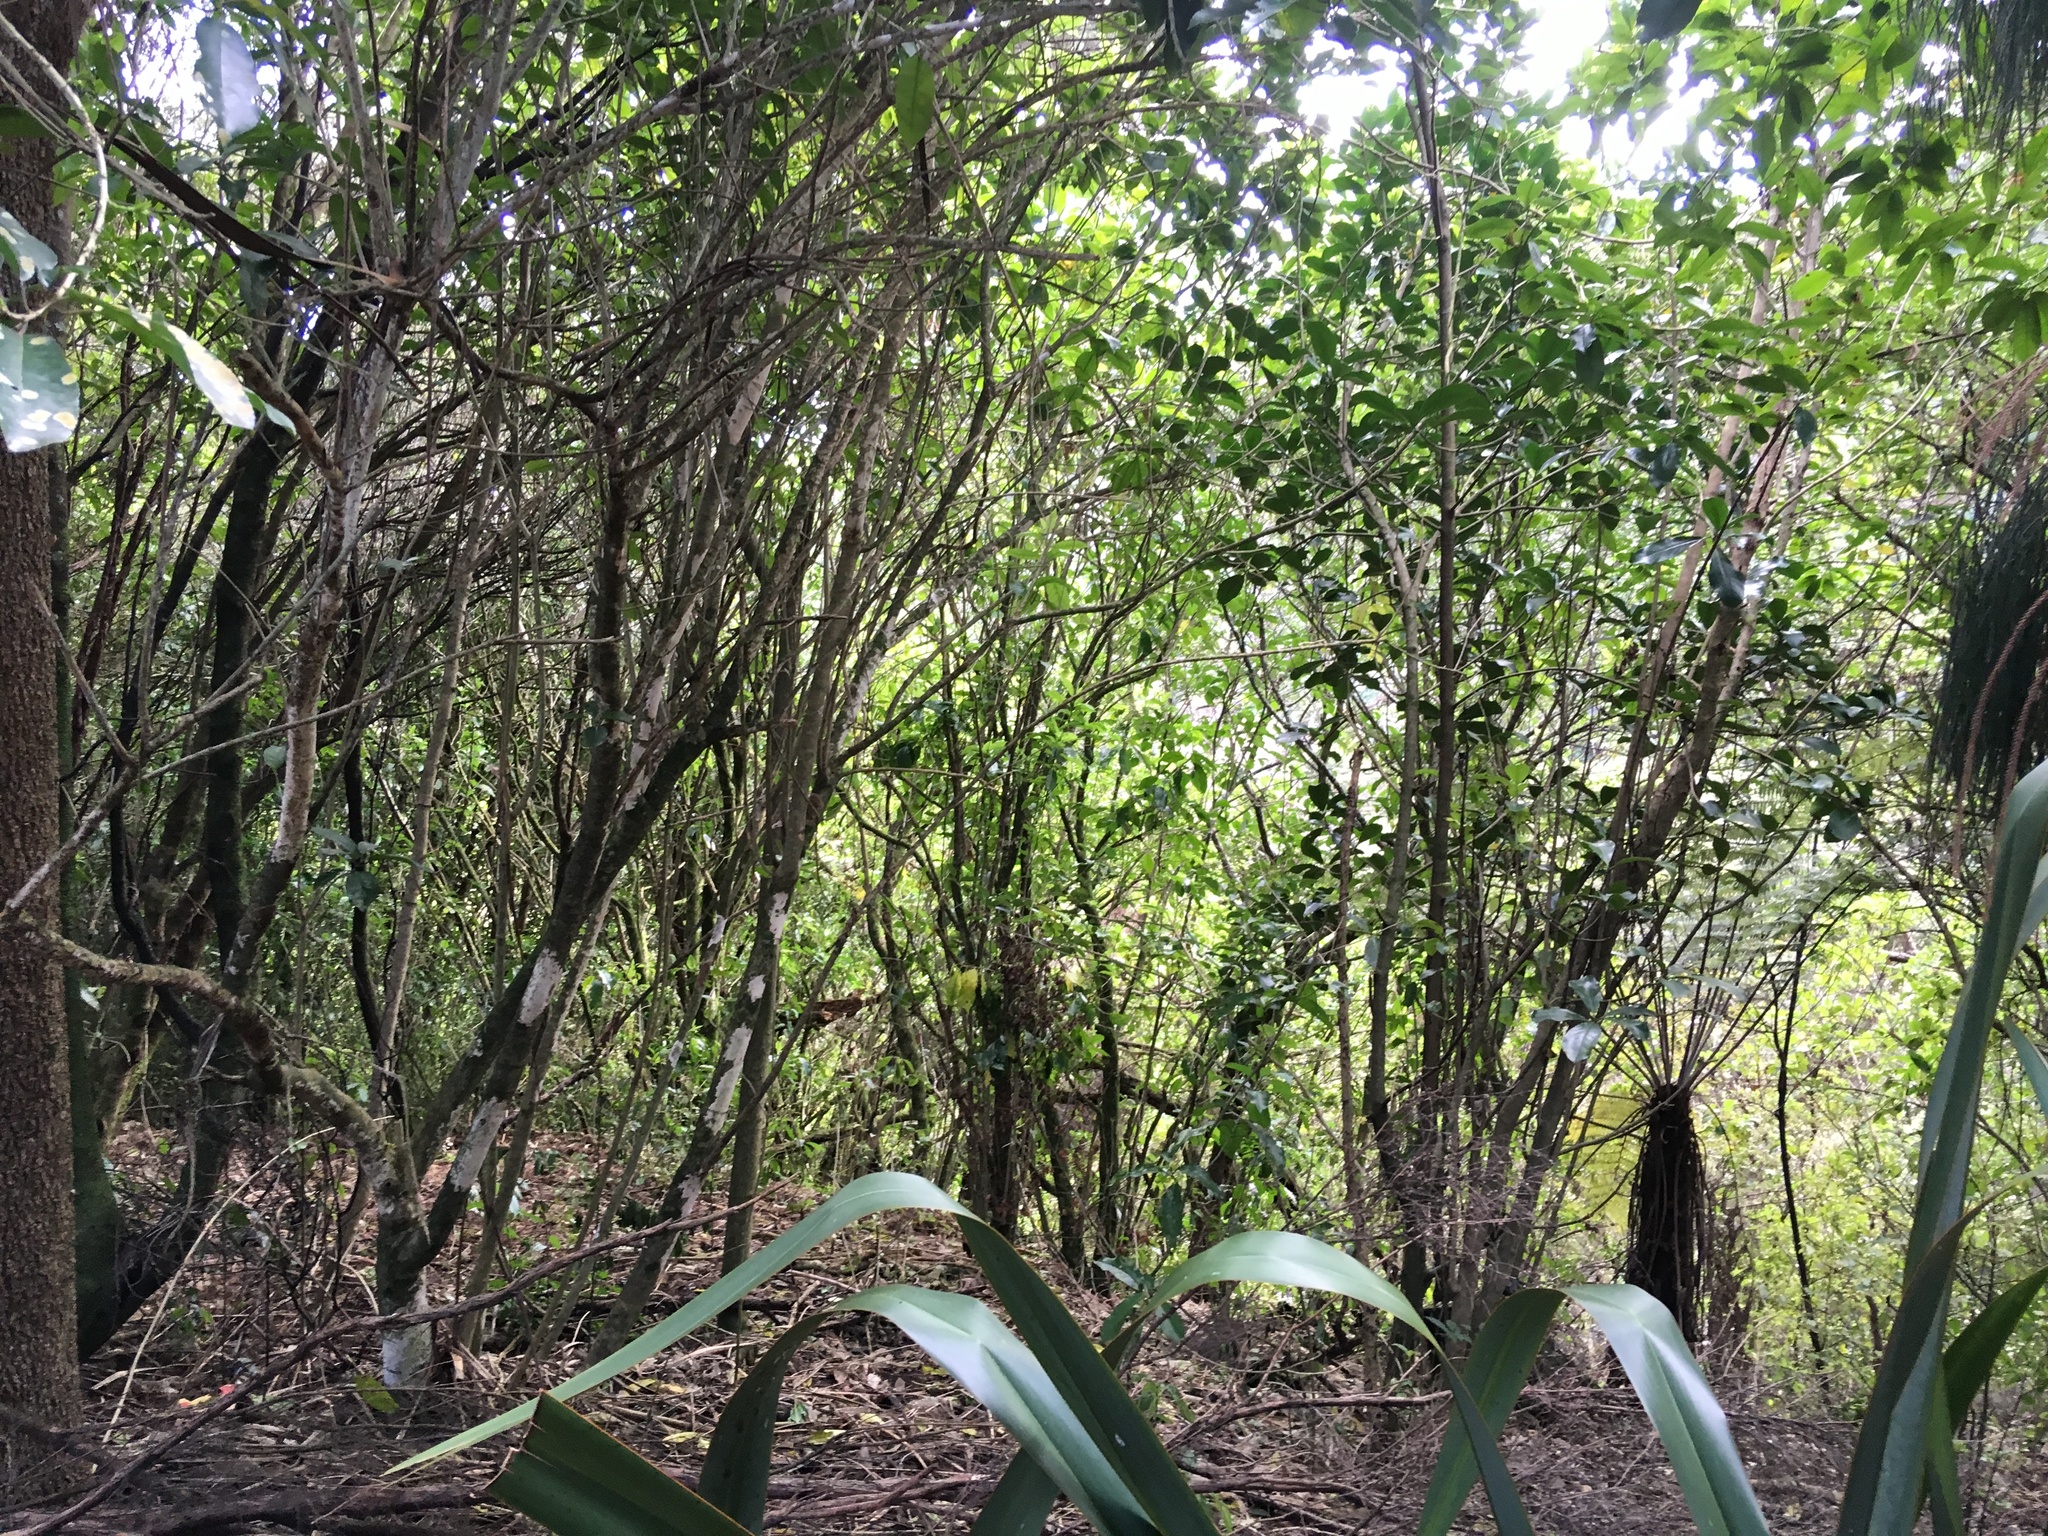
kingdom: Plantae
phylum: Tracheophyta
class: Liliopsida
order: Asparagales
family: Asphodelaceae
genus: Phormium
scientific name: Phormium tenax
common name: New zealand flax
